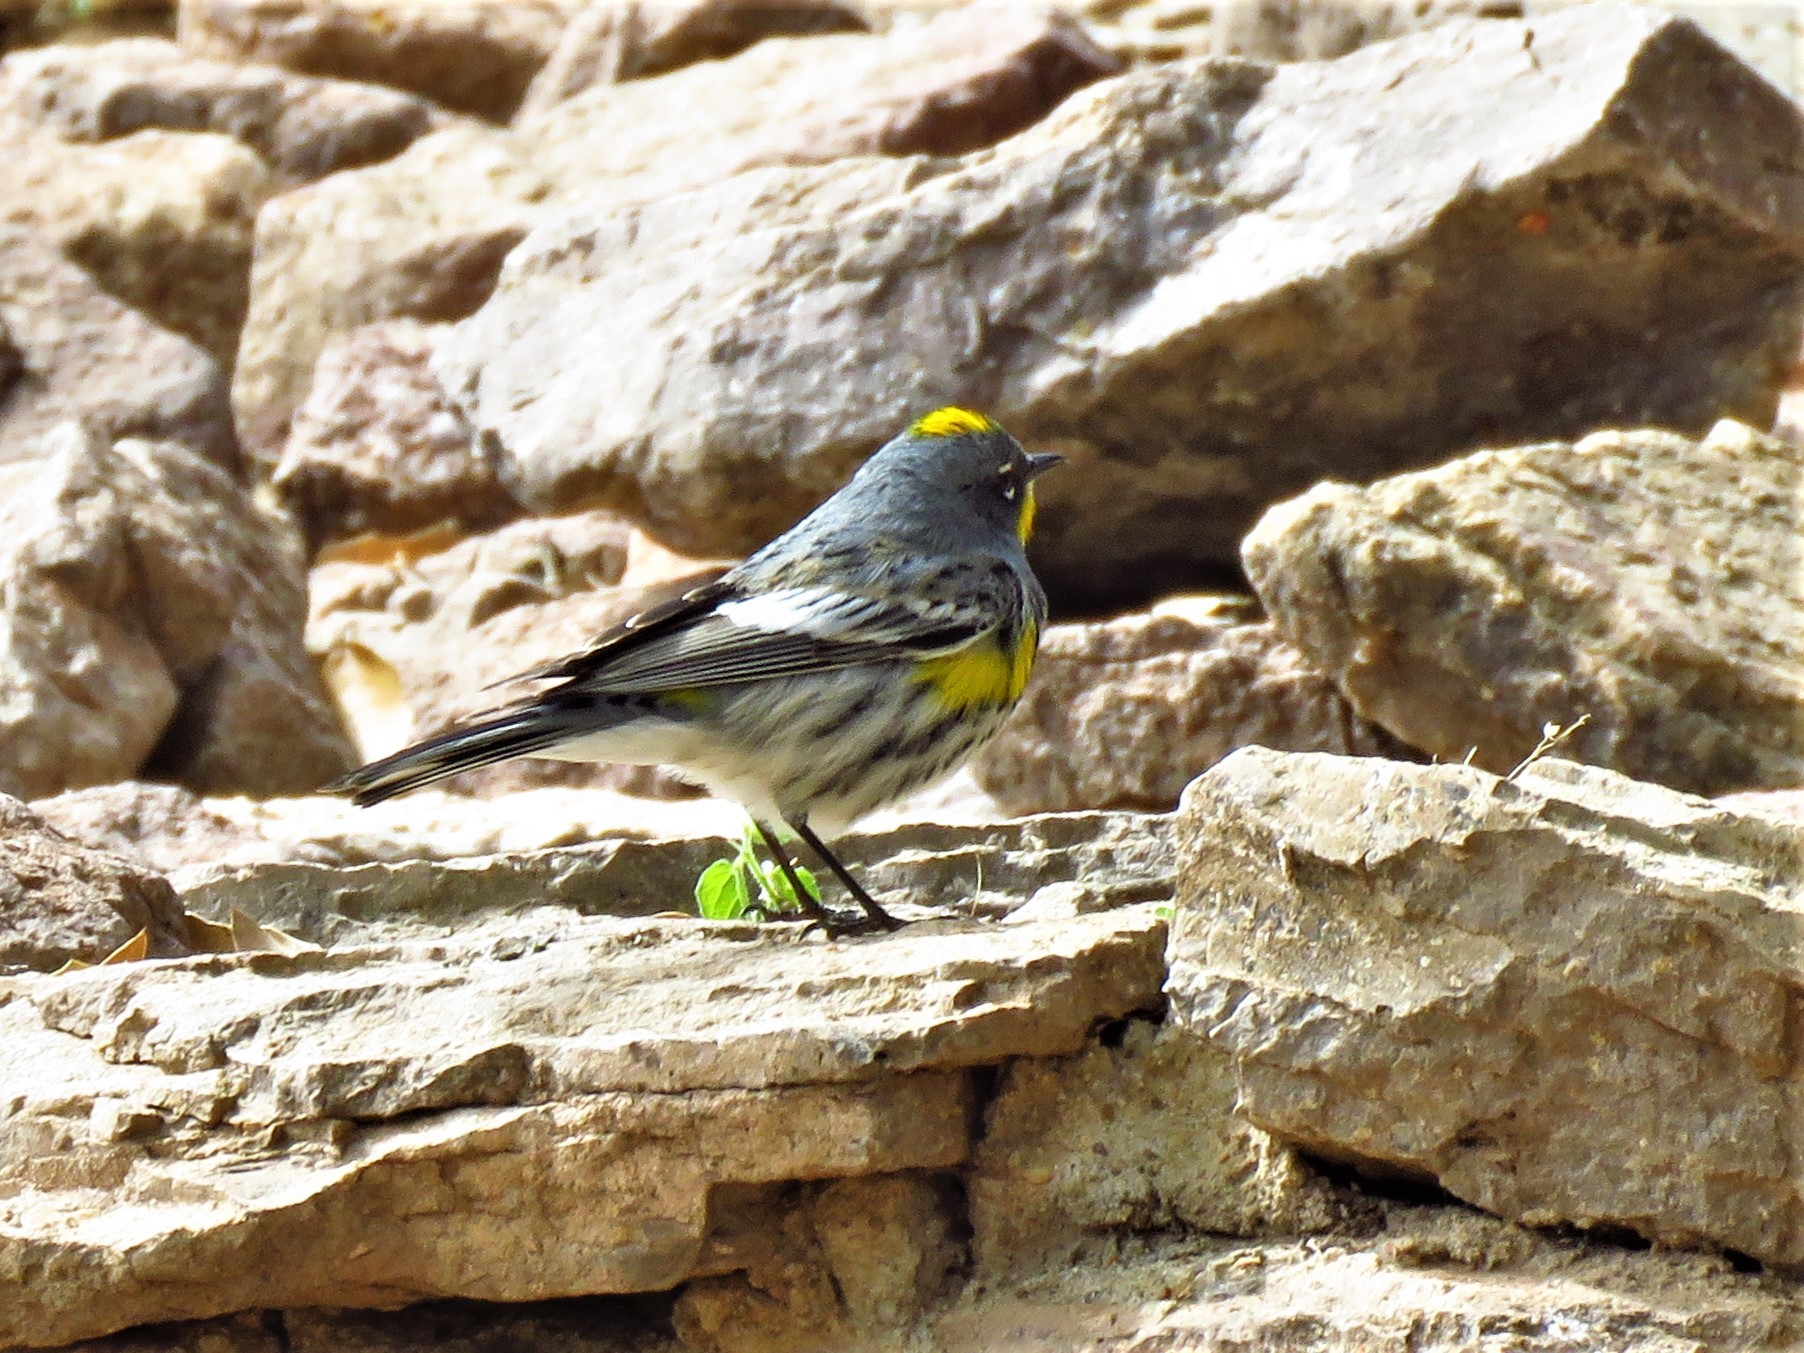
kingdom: Animalia
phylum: Chordata
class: Aves
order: Passeriformes
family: Parulidae
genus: Setophaga
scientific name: Setophaga coronata
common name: Myrtle warbler
